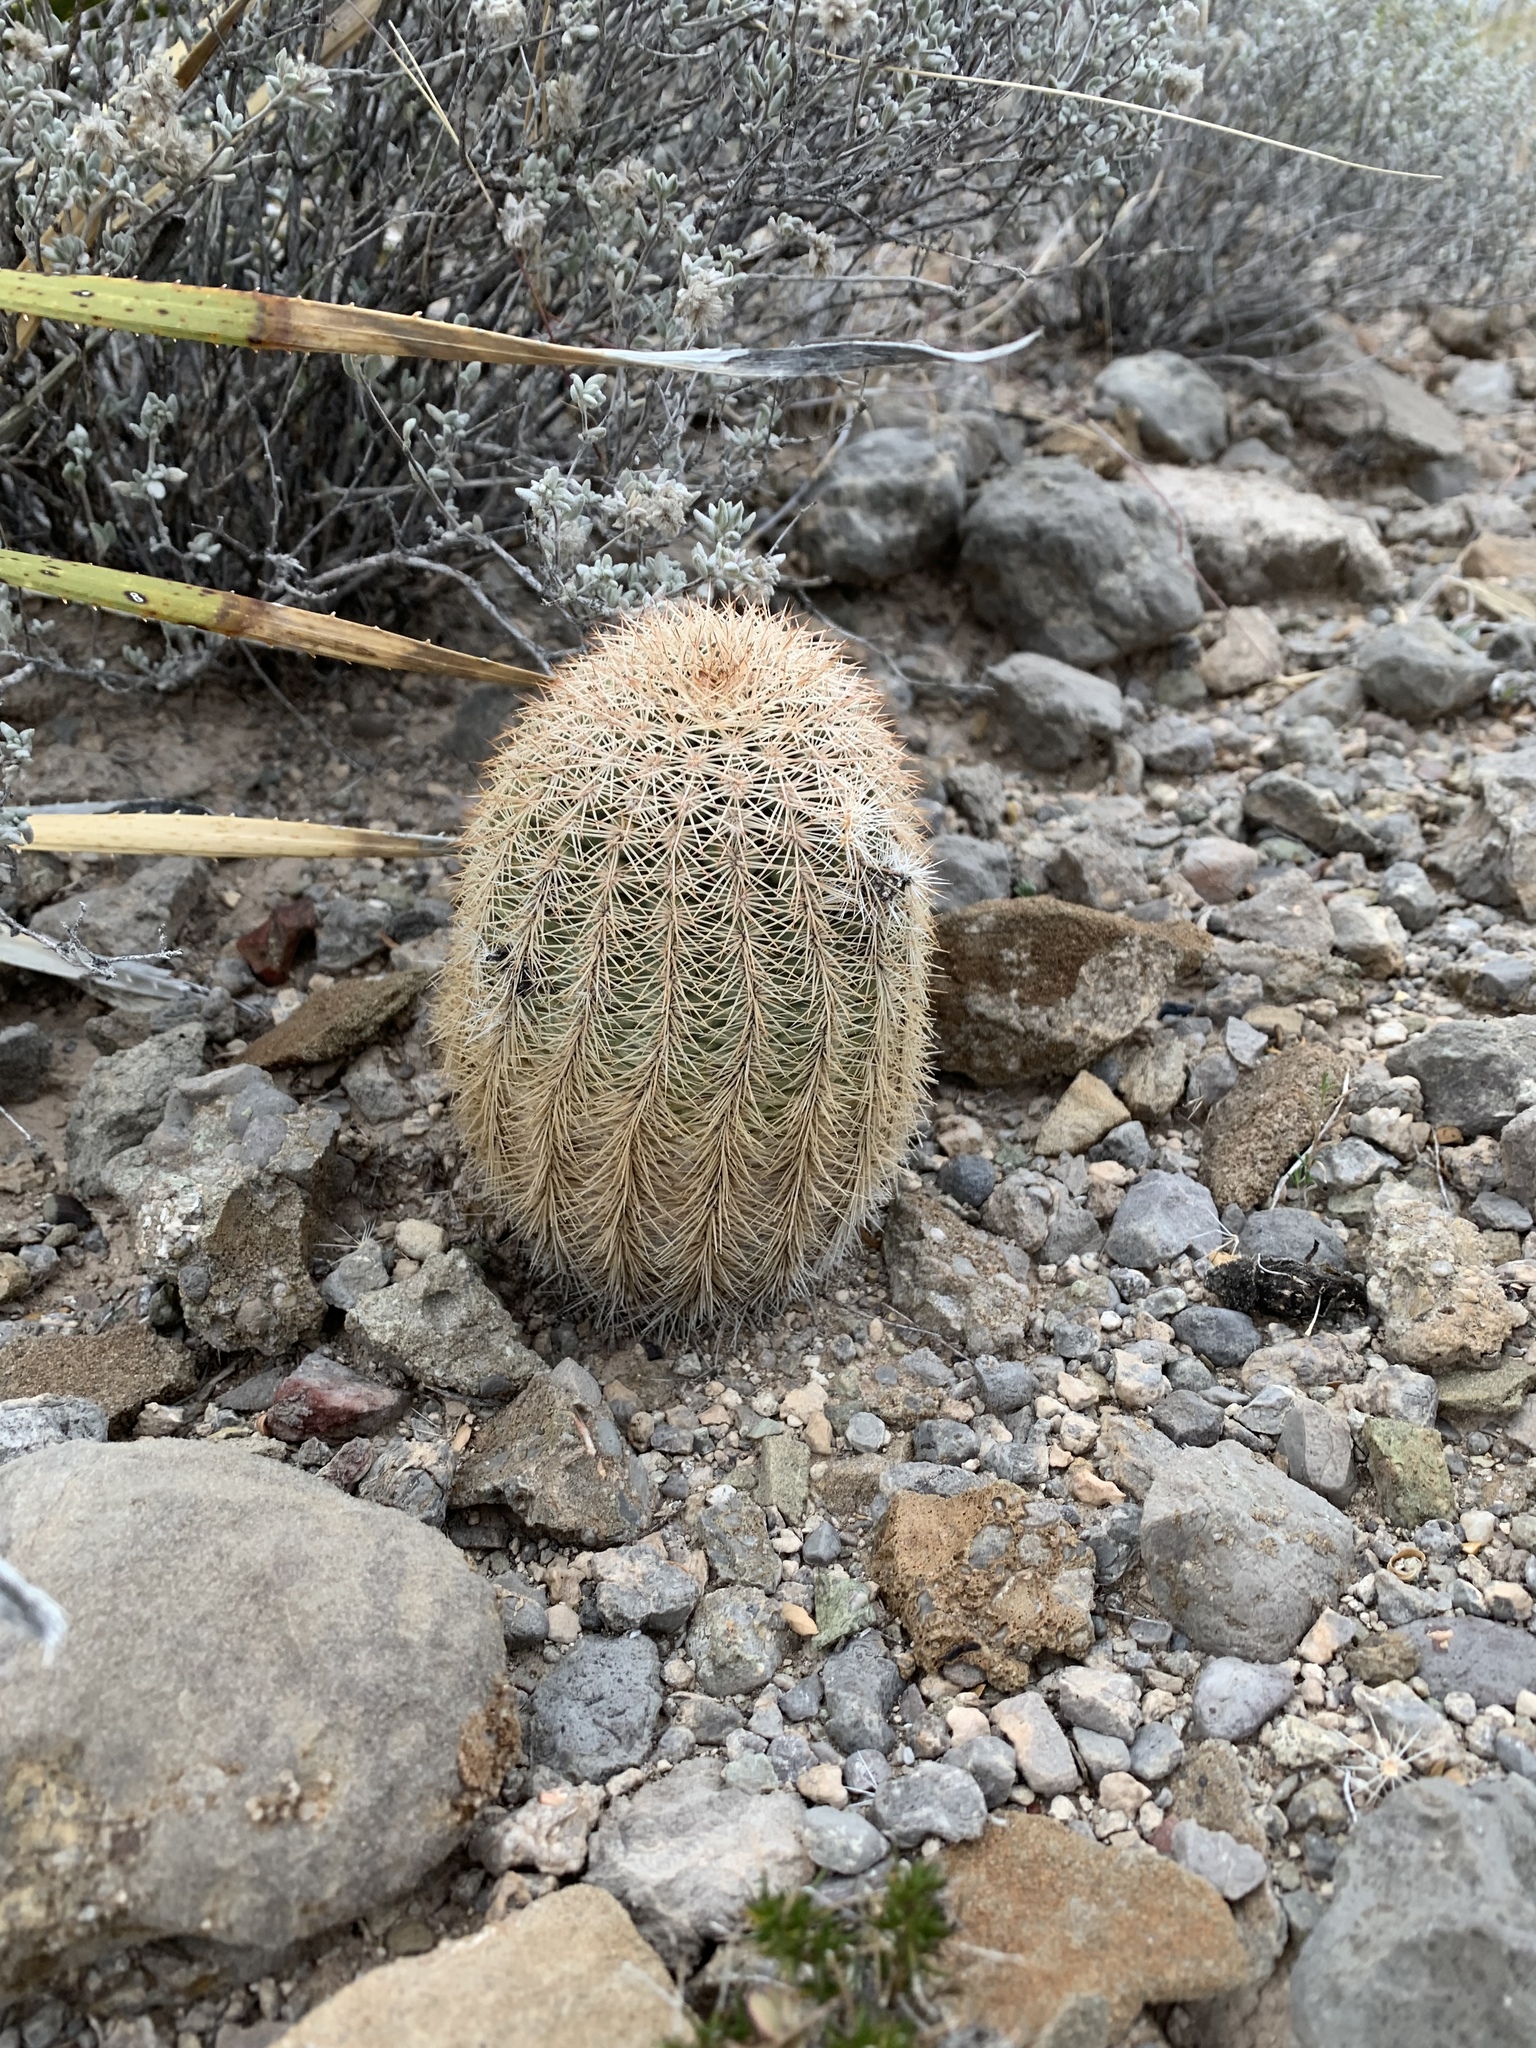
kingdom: Plantae
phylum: Tracheophyta
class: Magnoliopsida
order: Caryophyllales
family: Cactaceae
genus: Echinocereus
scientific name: Echinocereus dasyacanthus
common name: Spiny hedgehog cactus
